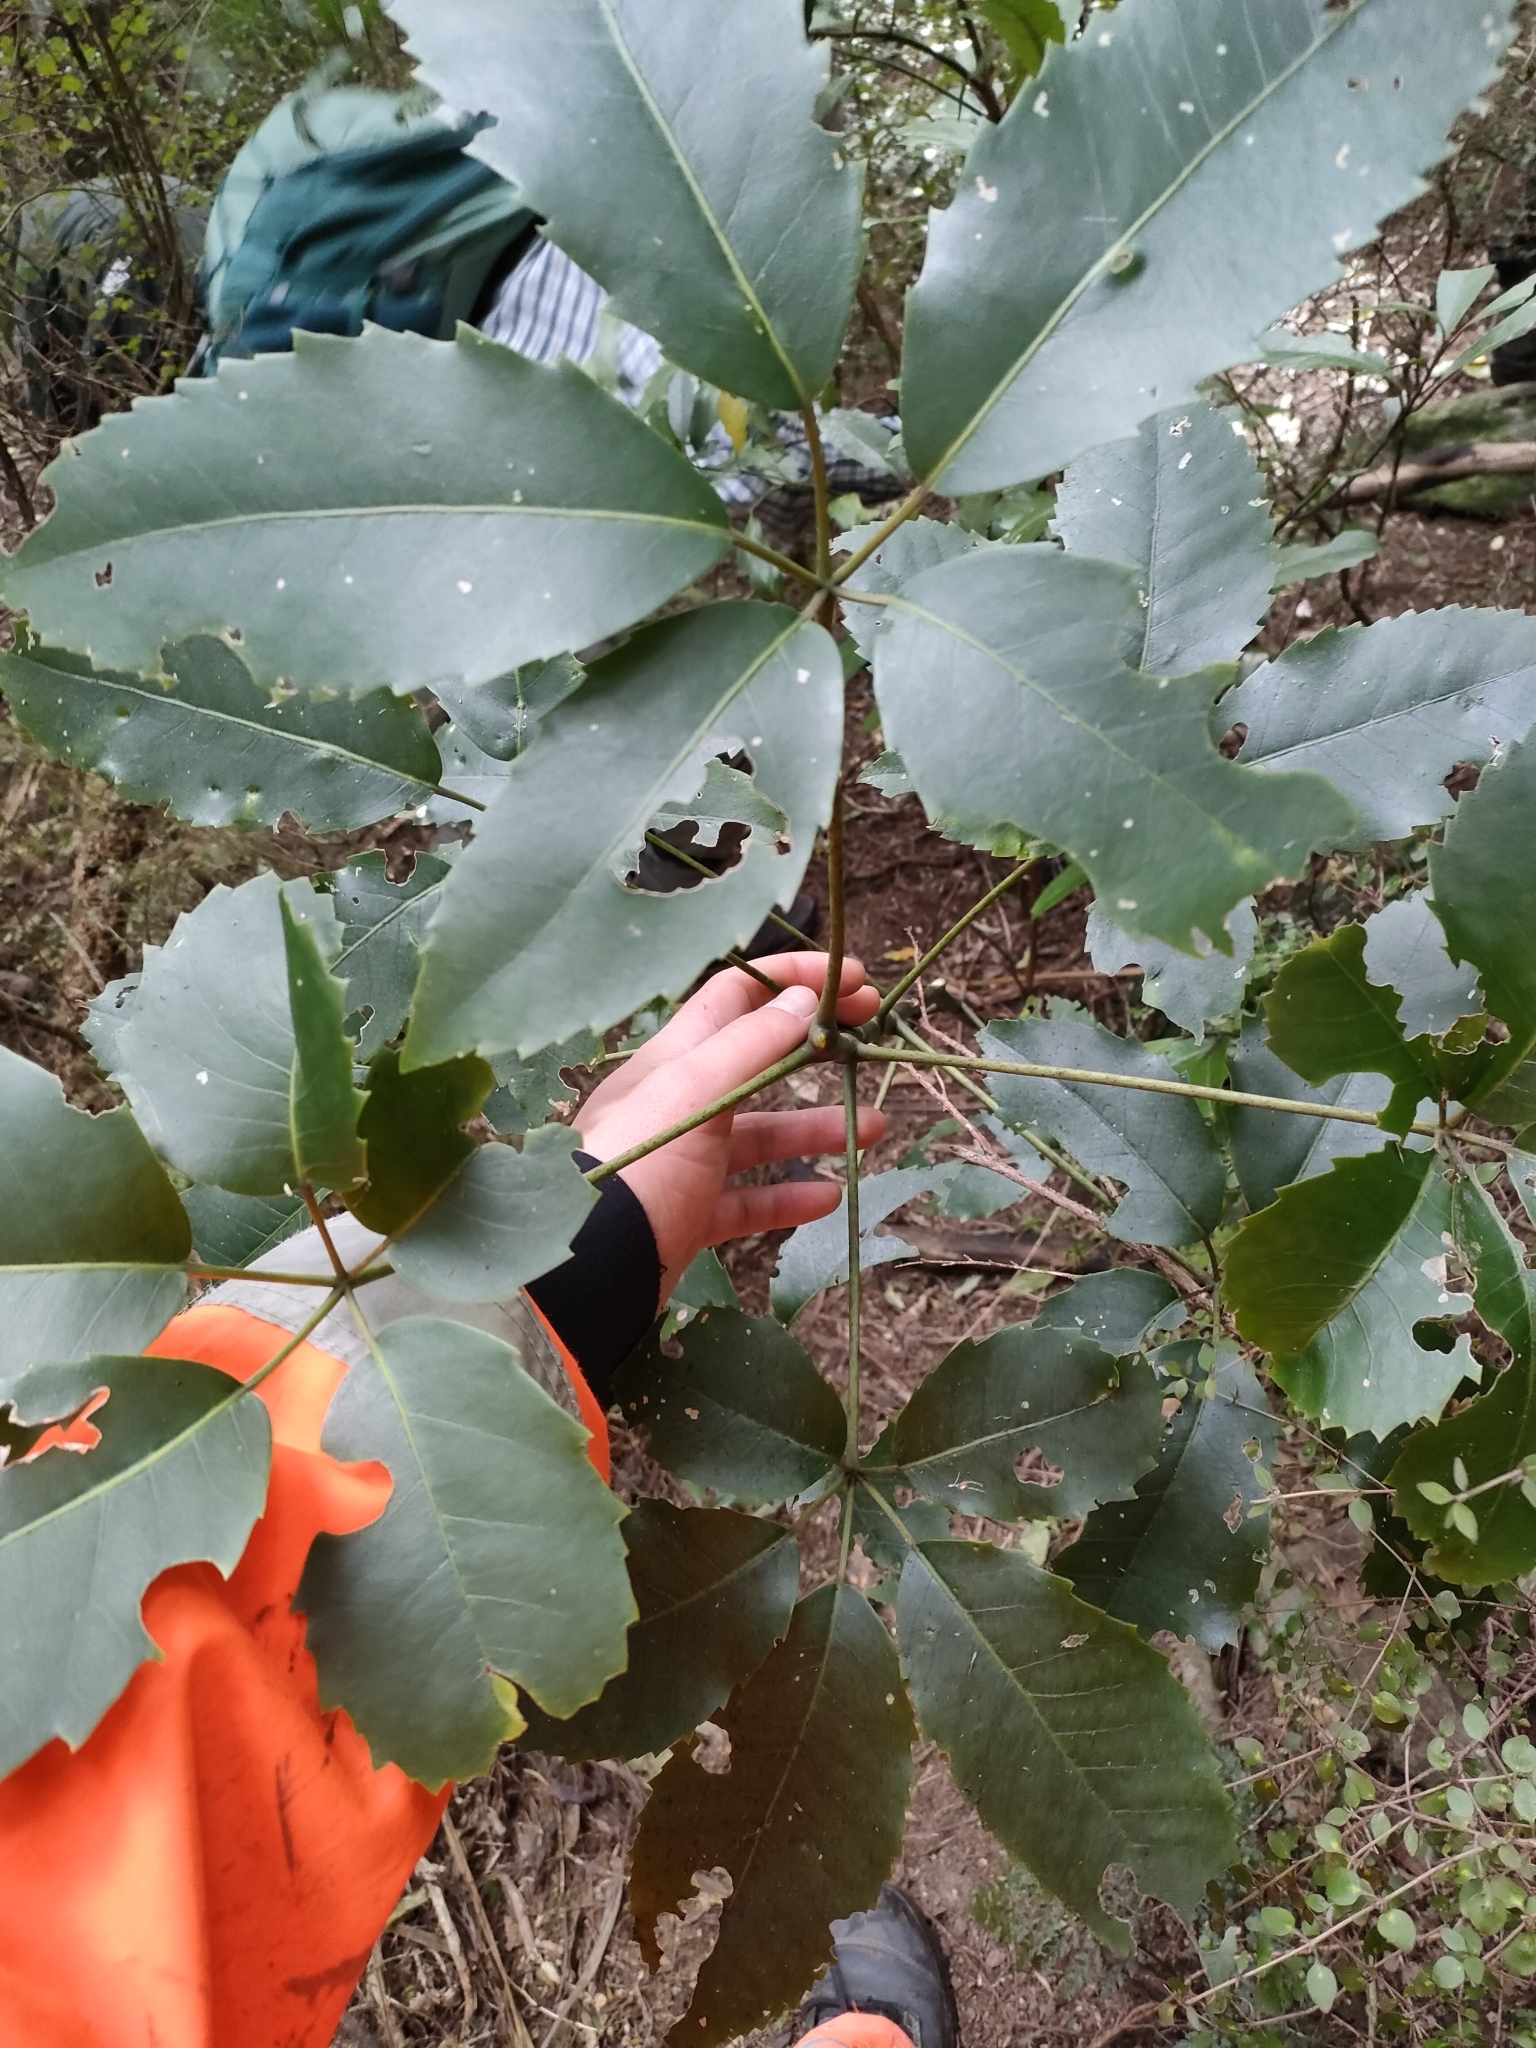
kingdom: Plantae
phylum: Tracheophyta
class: Magnoliopsida
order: Apiales
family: Araliaceae
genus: Neopanax
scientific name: Neopanax arboreus
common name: Five-fingers
